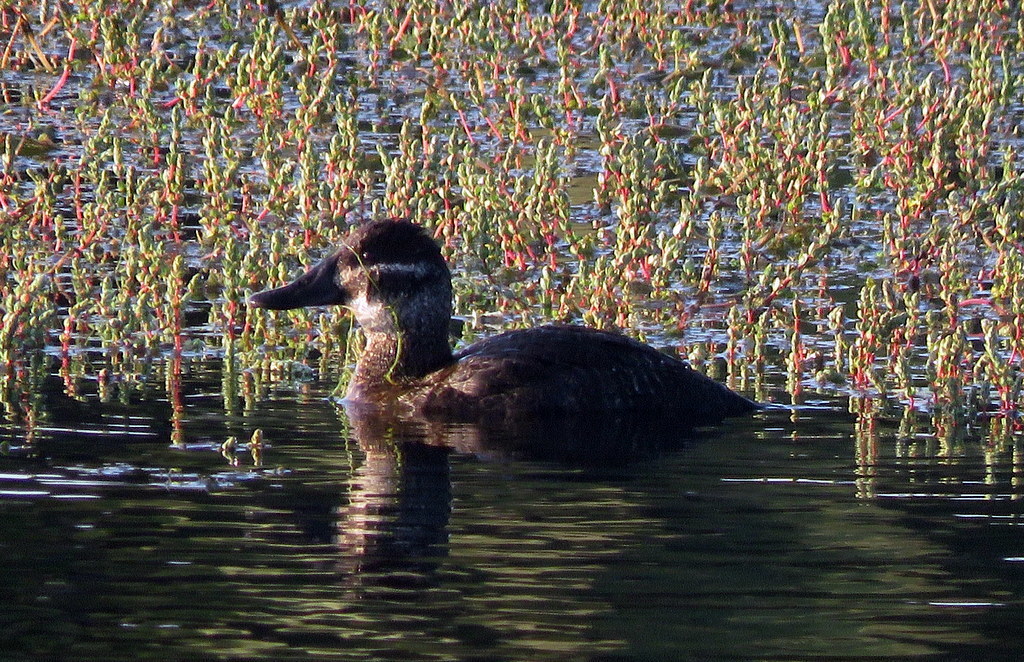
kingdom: Animalia
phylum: Chordata
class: Aves
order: Anseriformes
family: Anatidae
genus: Oxyura
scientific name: Oxyura vittata
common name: Lake duck
